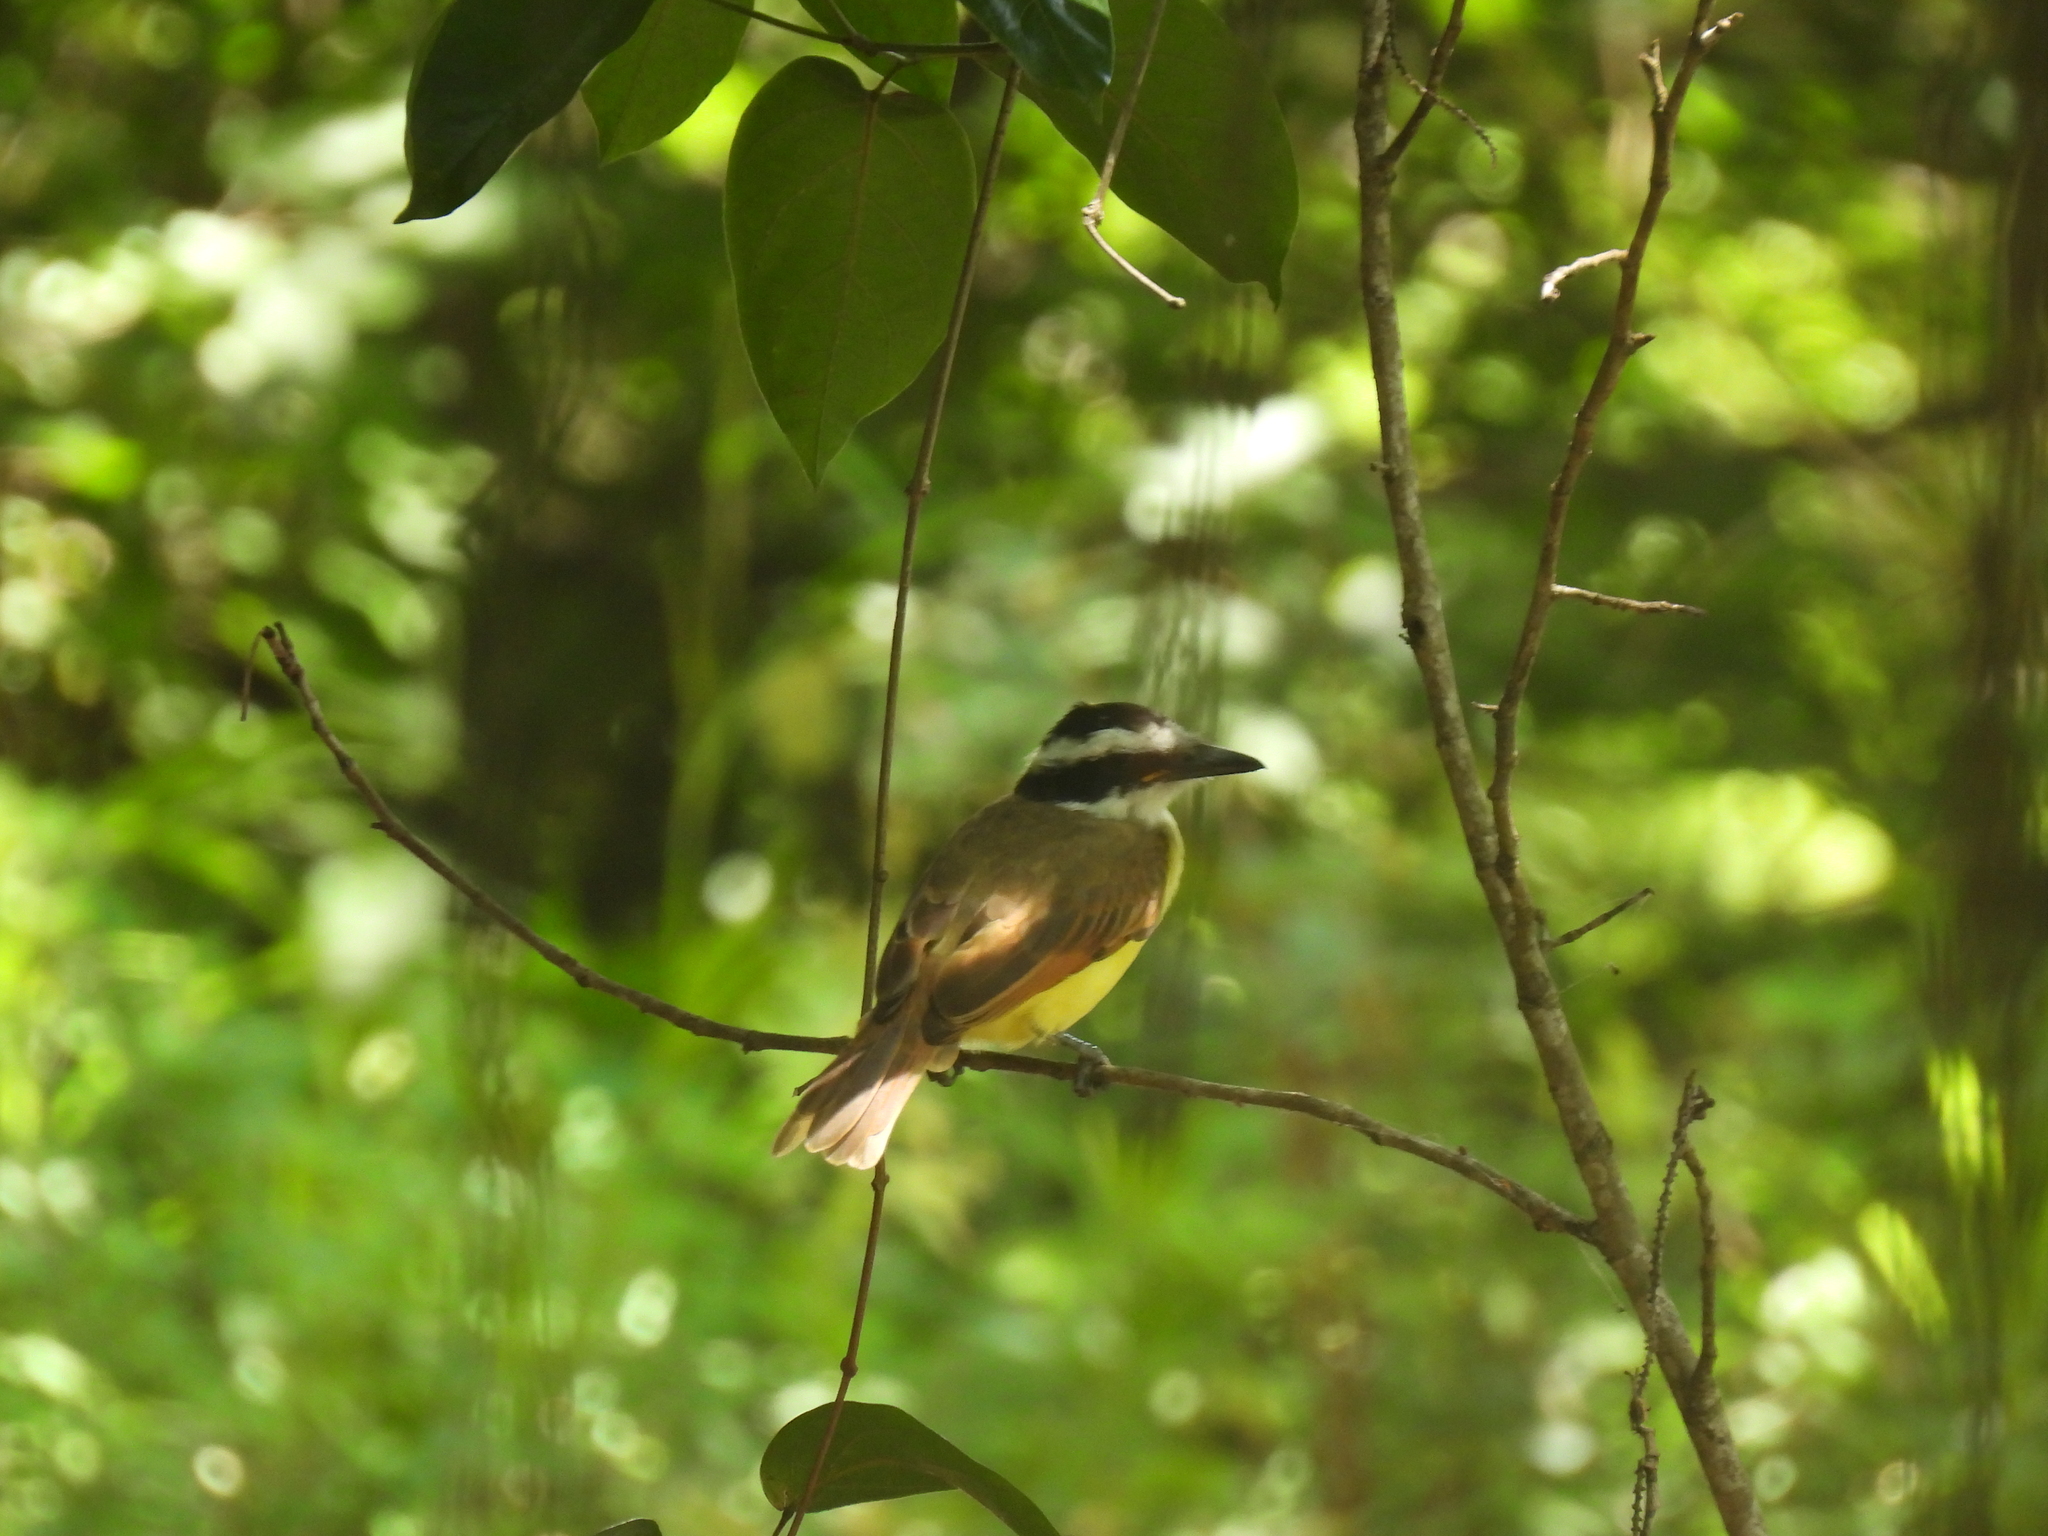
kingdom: Animalia
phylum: Chordata
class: Aves
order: Passeriformes
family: Tyrannidae
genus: Pitangus
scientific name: Pitangus sulphuratus
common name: Great kiskadee
